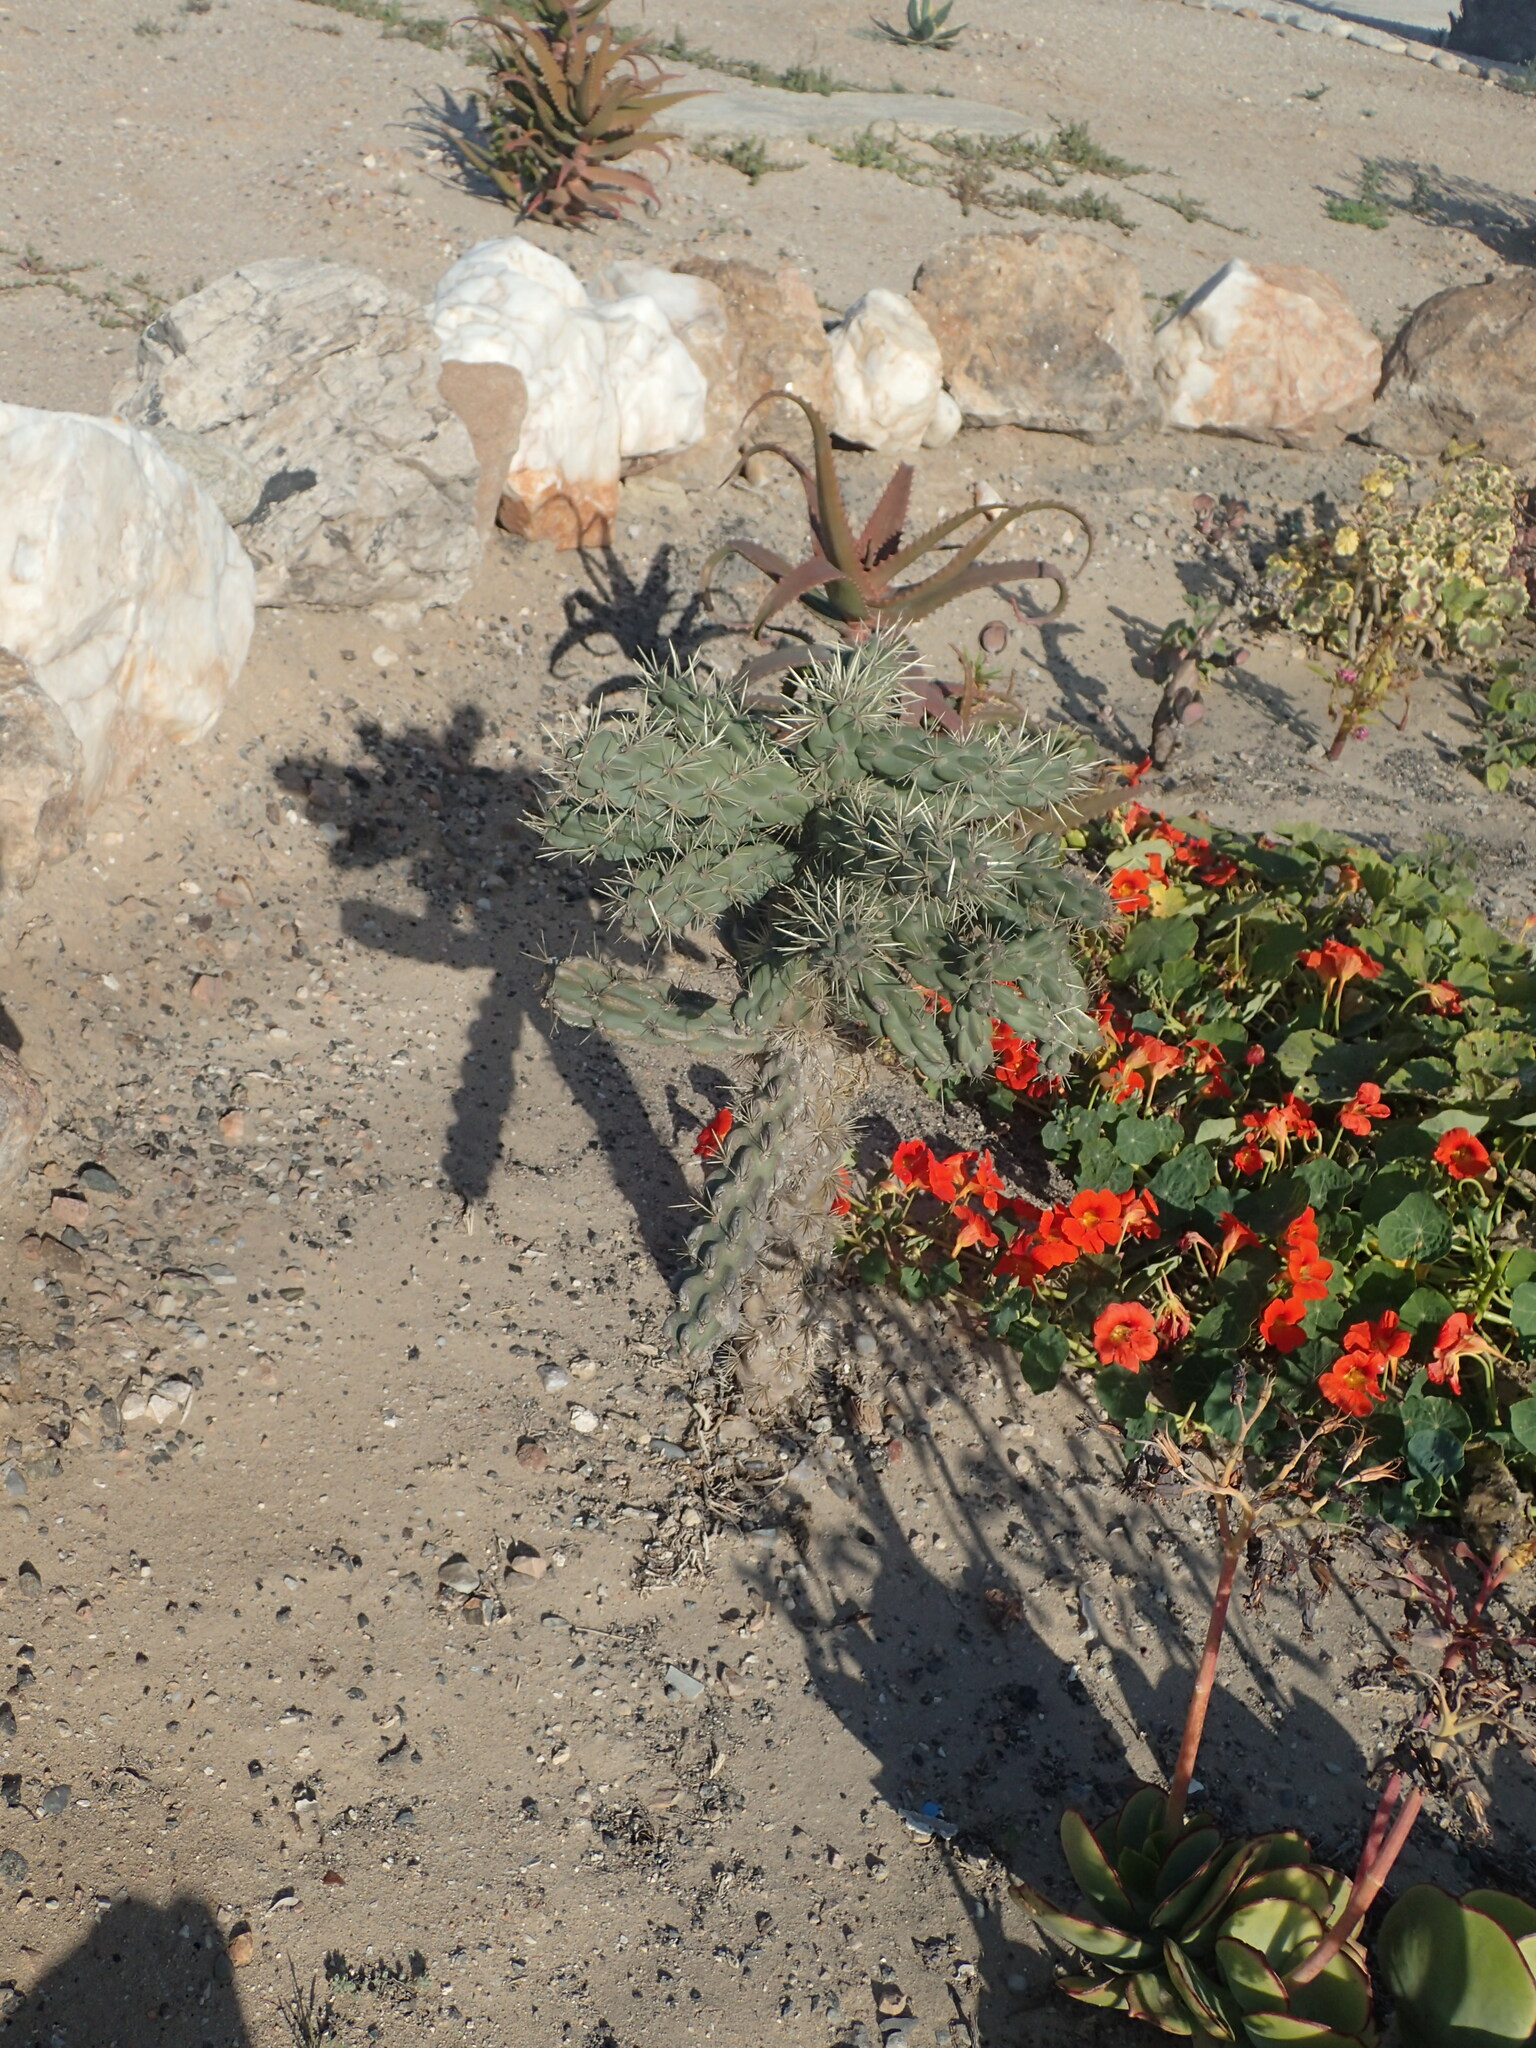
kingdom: Plantae
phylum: Tracheophyta
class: Magnoliopsida
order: Caryophyllales
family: Cactaceae
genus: Cylindropuntia
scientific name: Cylindropuntia imbricata
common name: Candelabrum cactus
